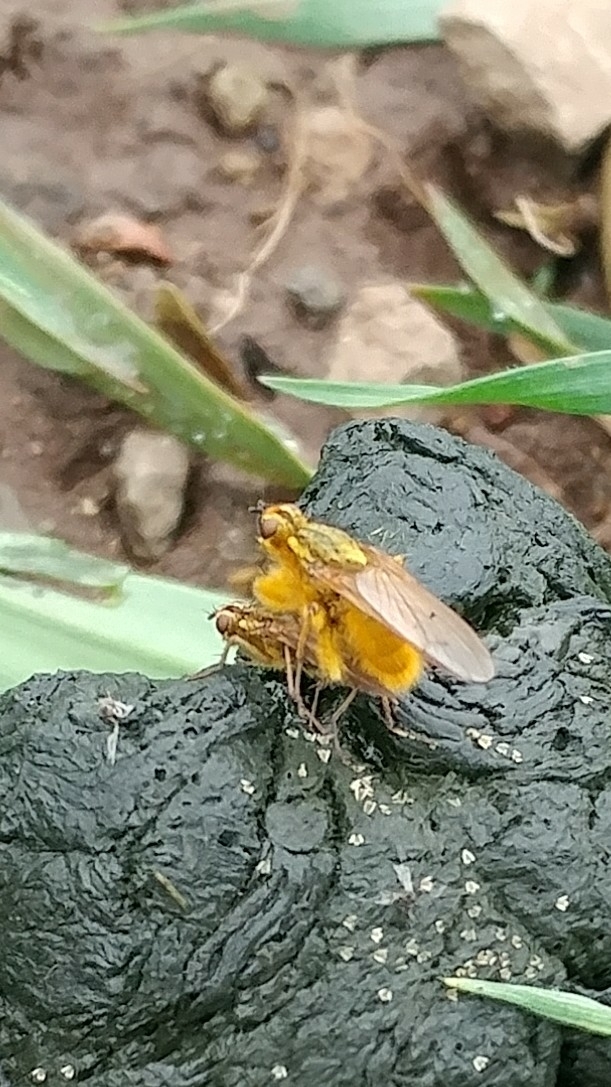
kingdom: Animalia
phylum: Arthropoda
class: Insecta
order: Diptera
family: Scathophagidae
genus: Scathophaga
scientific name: Scathophaga stercoraria
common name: Yellow dung fly
